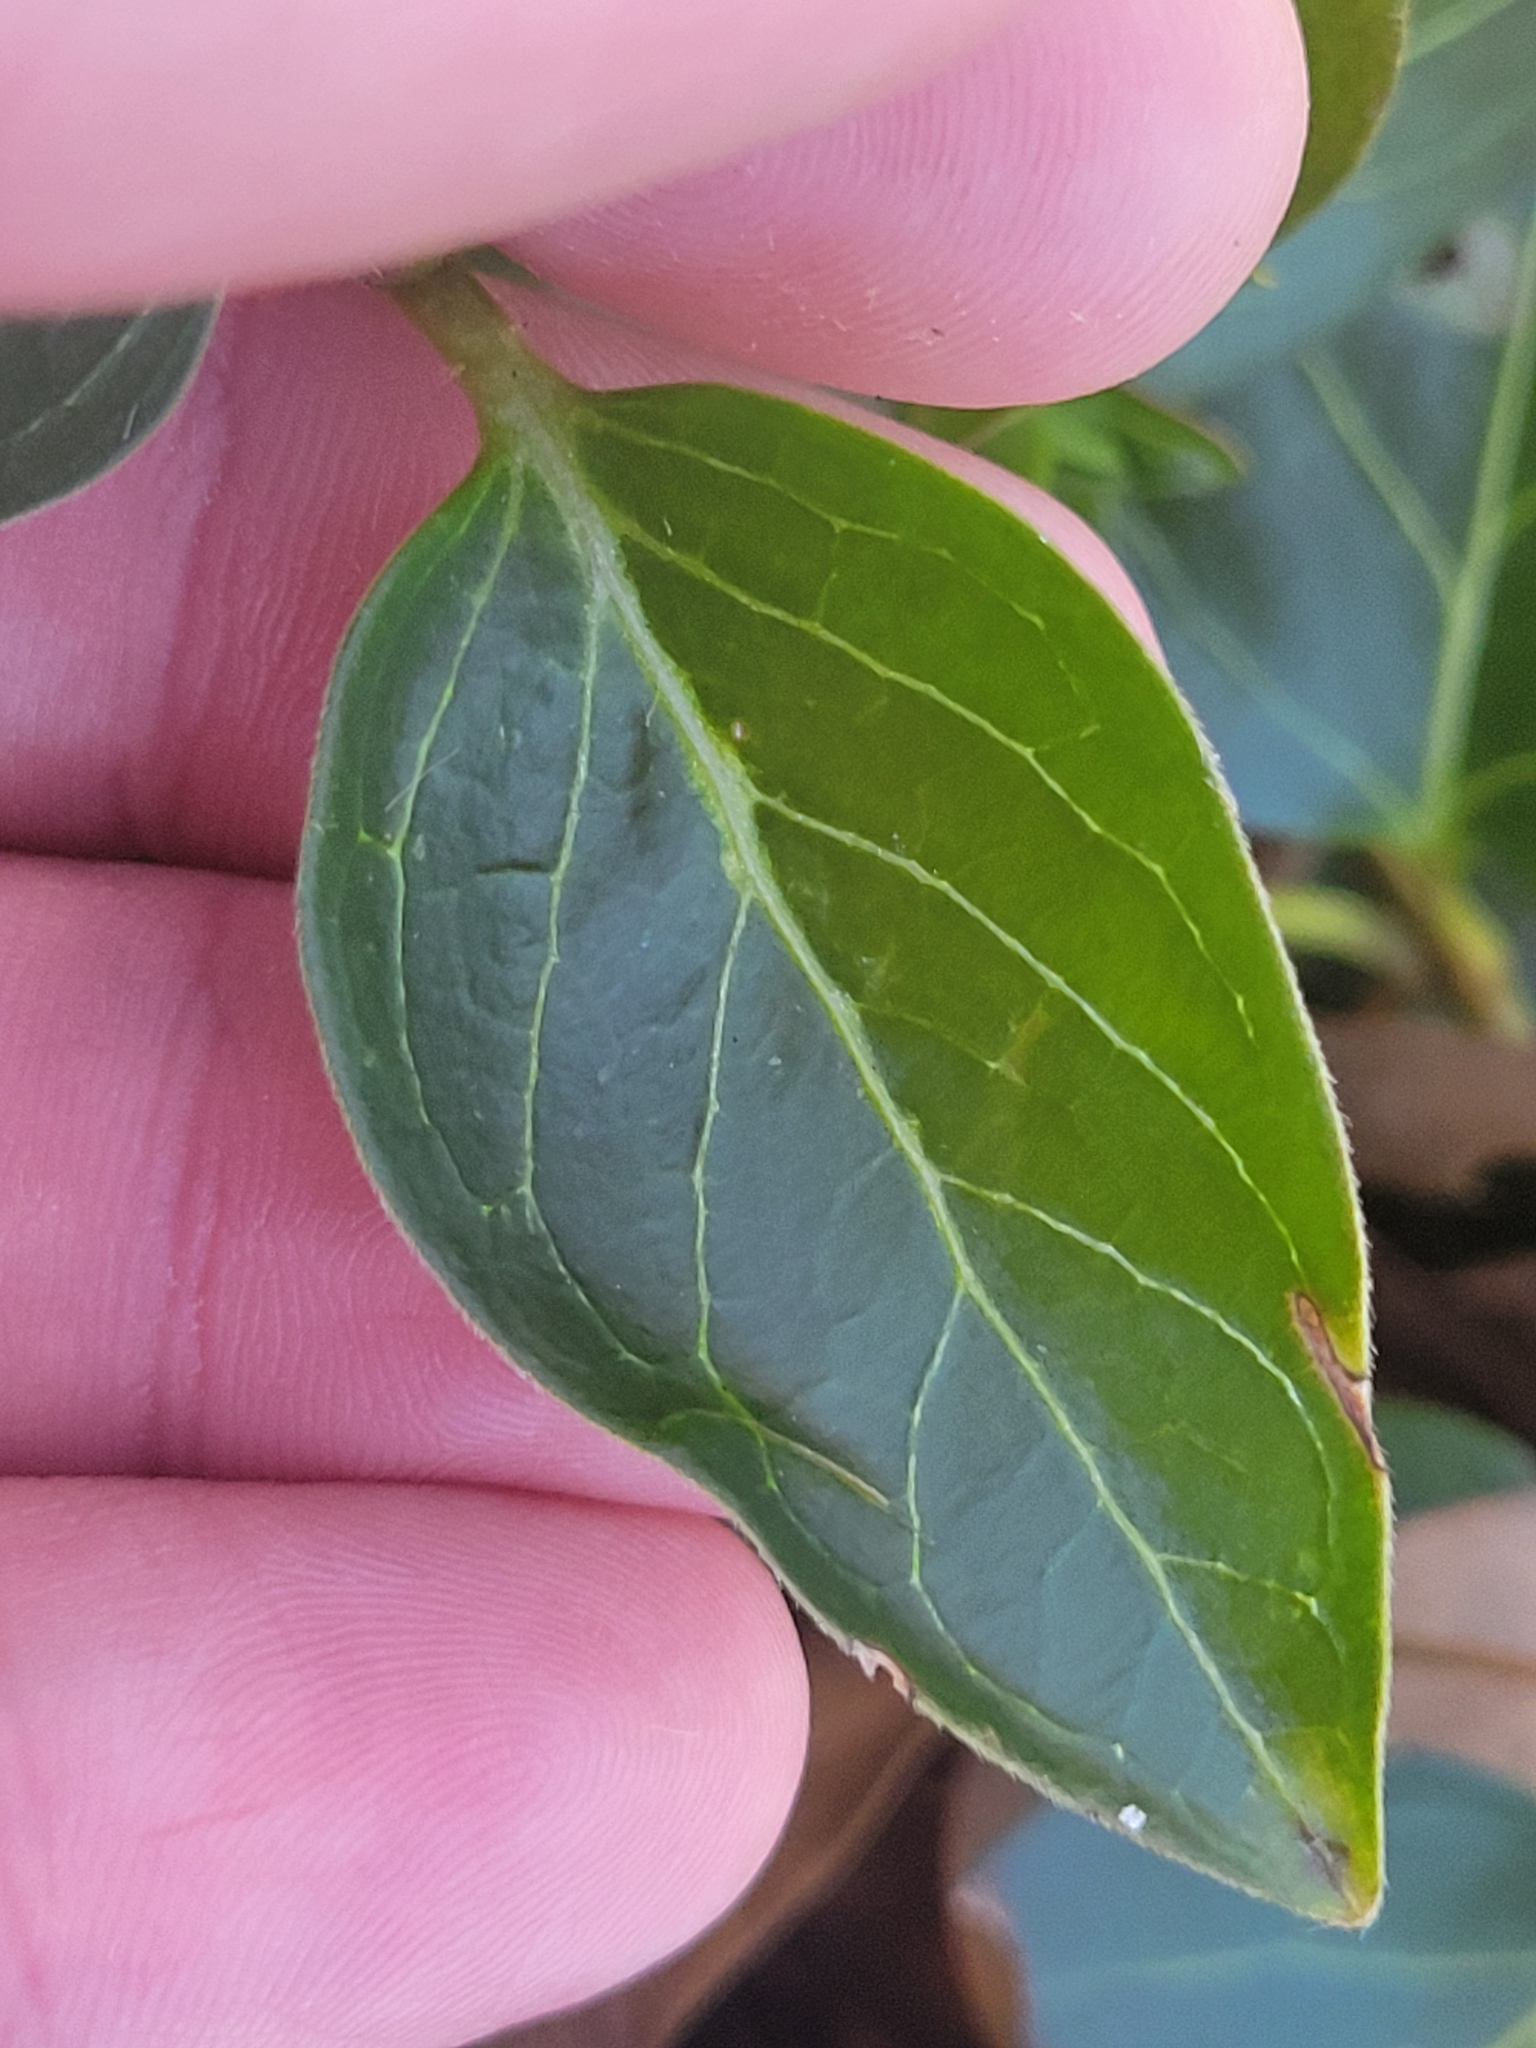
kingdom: Plantae
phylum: Tracheophyta
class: Magnoliopsida
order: Gentianales
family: Apocynaceae
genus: Vinca
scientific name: Vinca major
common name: Greater periwinkle
